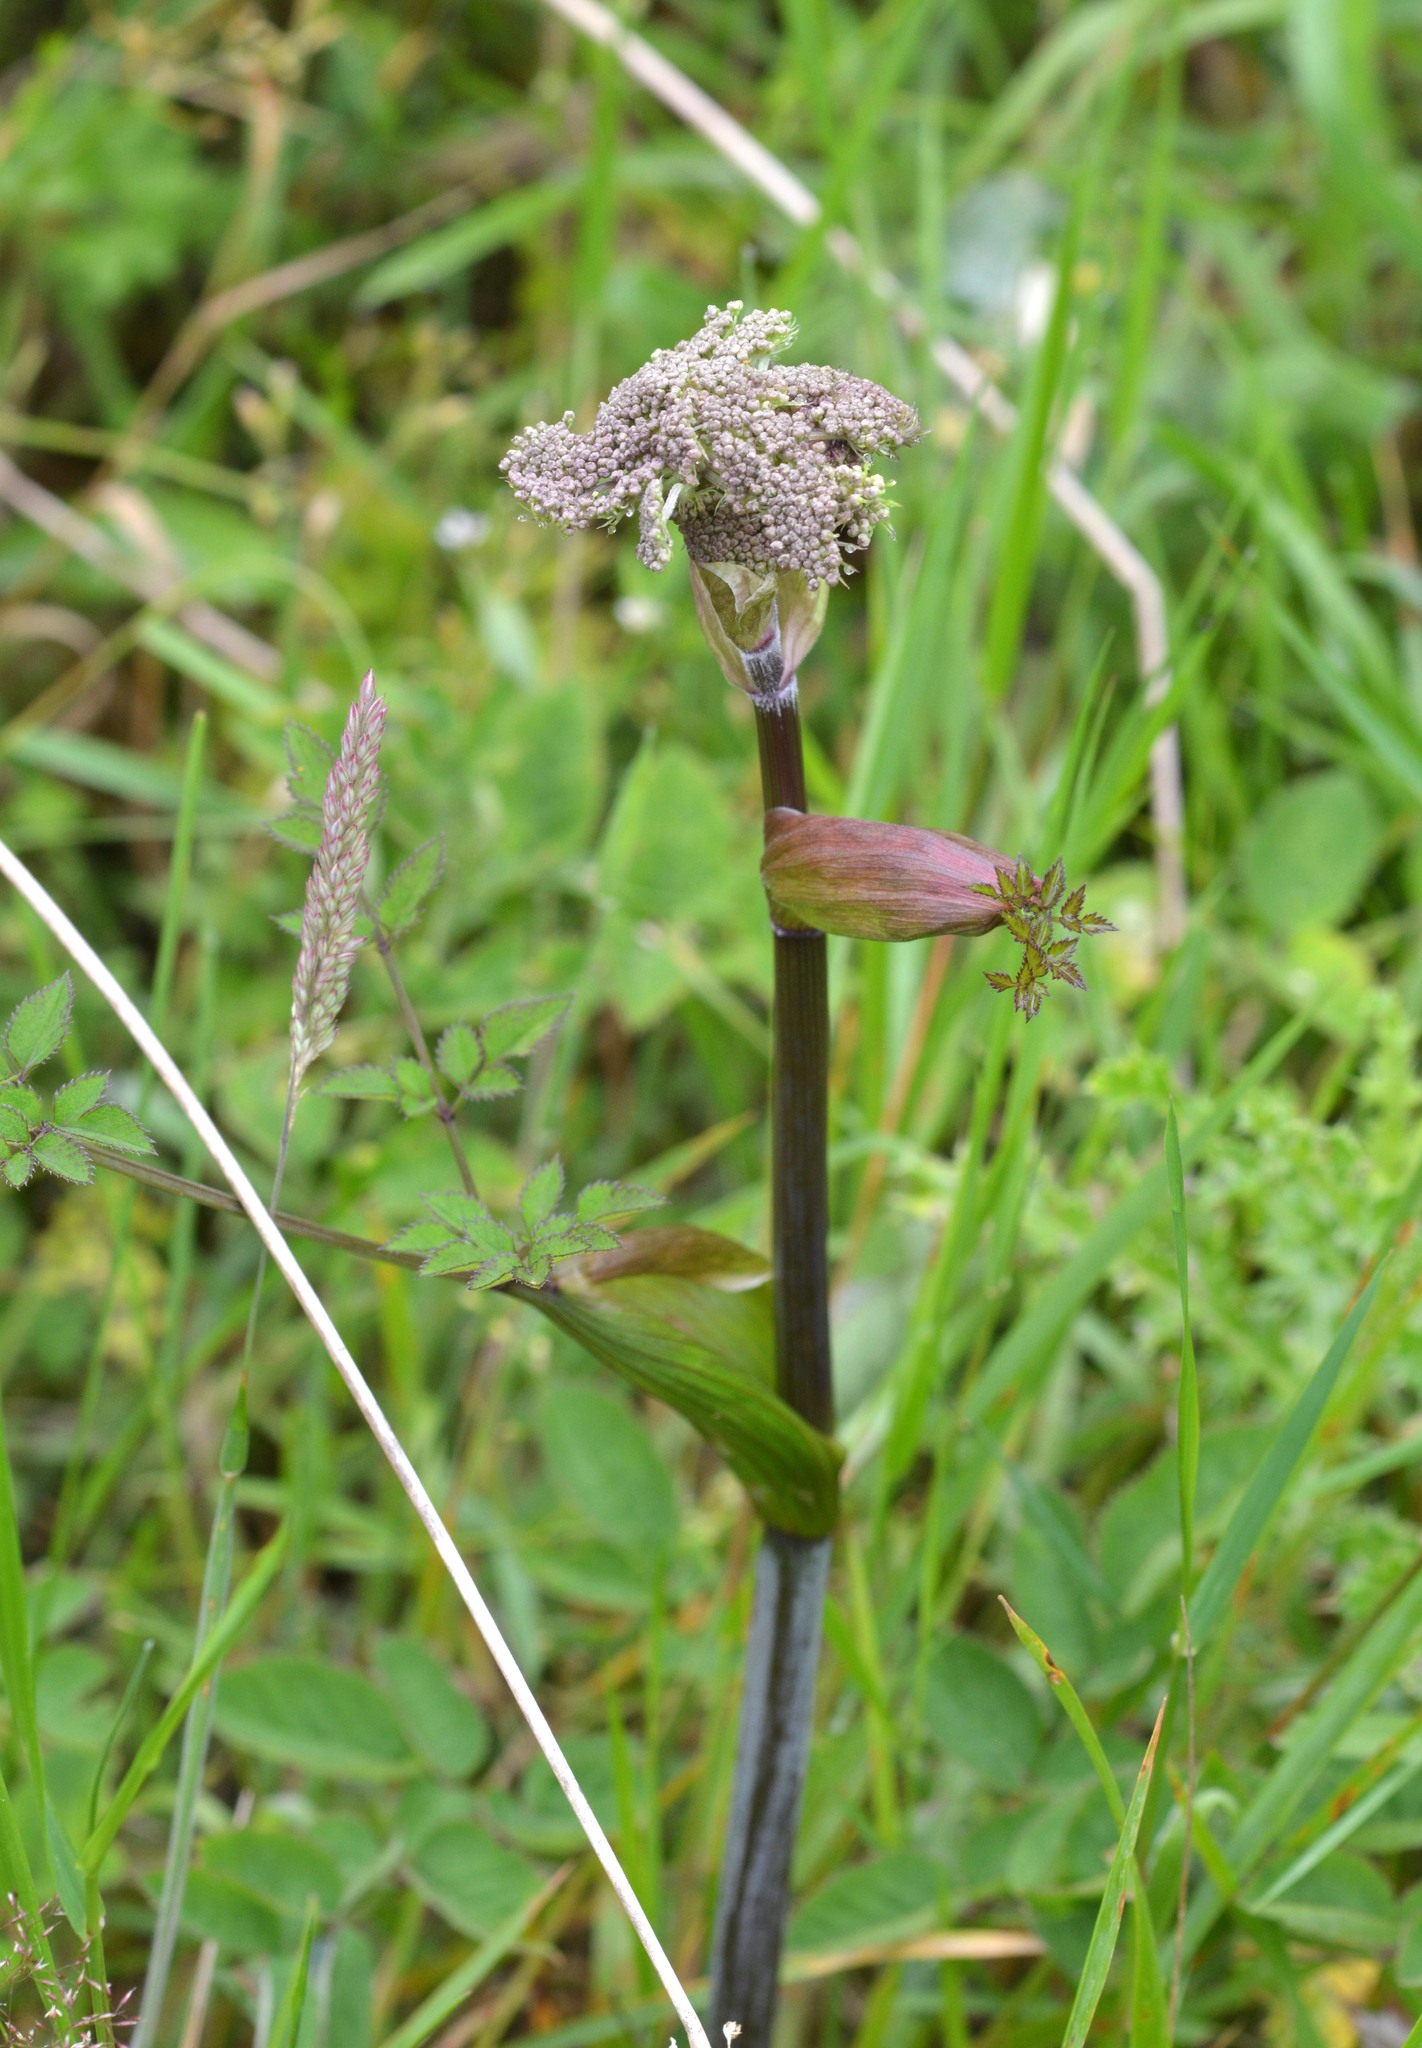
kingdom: Plantae
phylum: Tracheophyta
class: Magnoliopsida
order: Apiales
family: Apiaceae
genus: Angelica
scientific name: Angelica sylvestris
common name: Wild angelica
